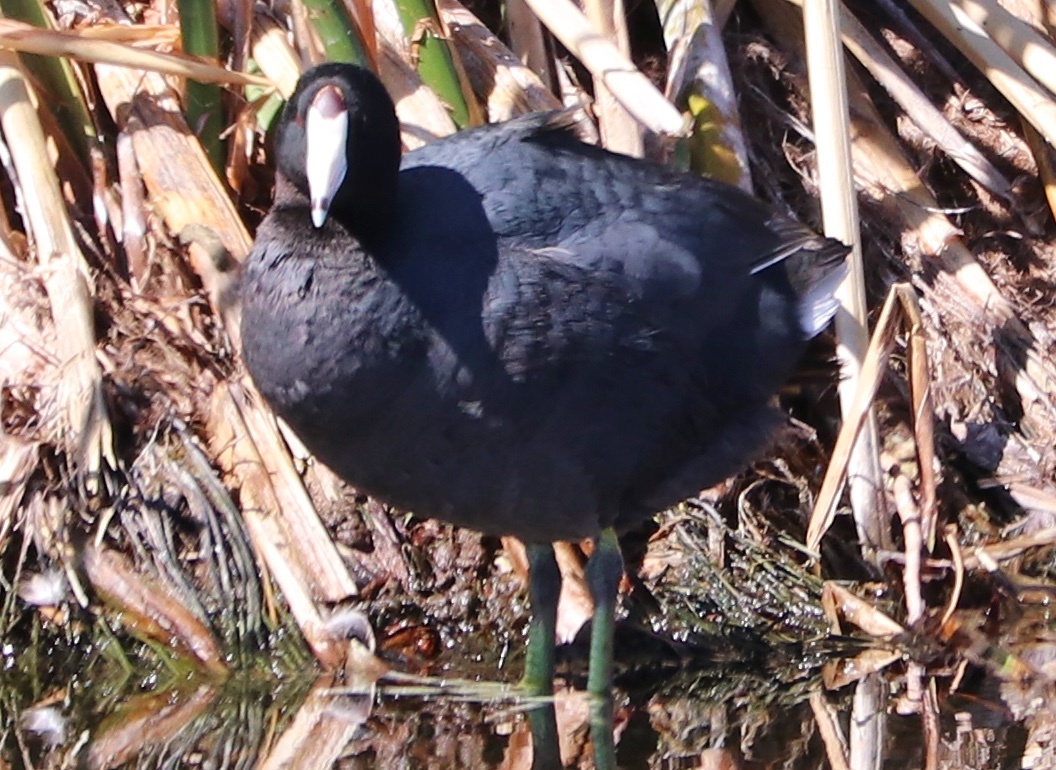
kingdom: Animalia
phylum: Chordata
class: Aves
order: Gruiformes
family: Rallidae
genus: Fulica
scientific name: Fulica americana
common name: American coot
